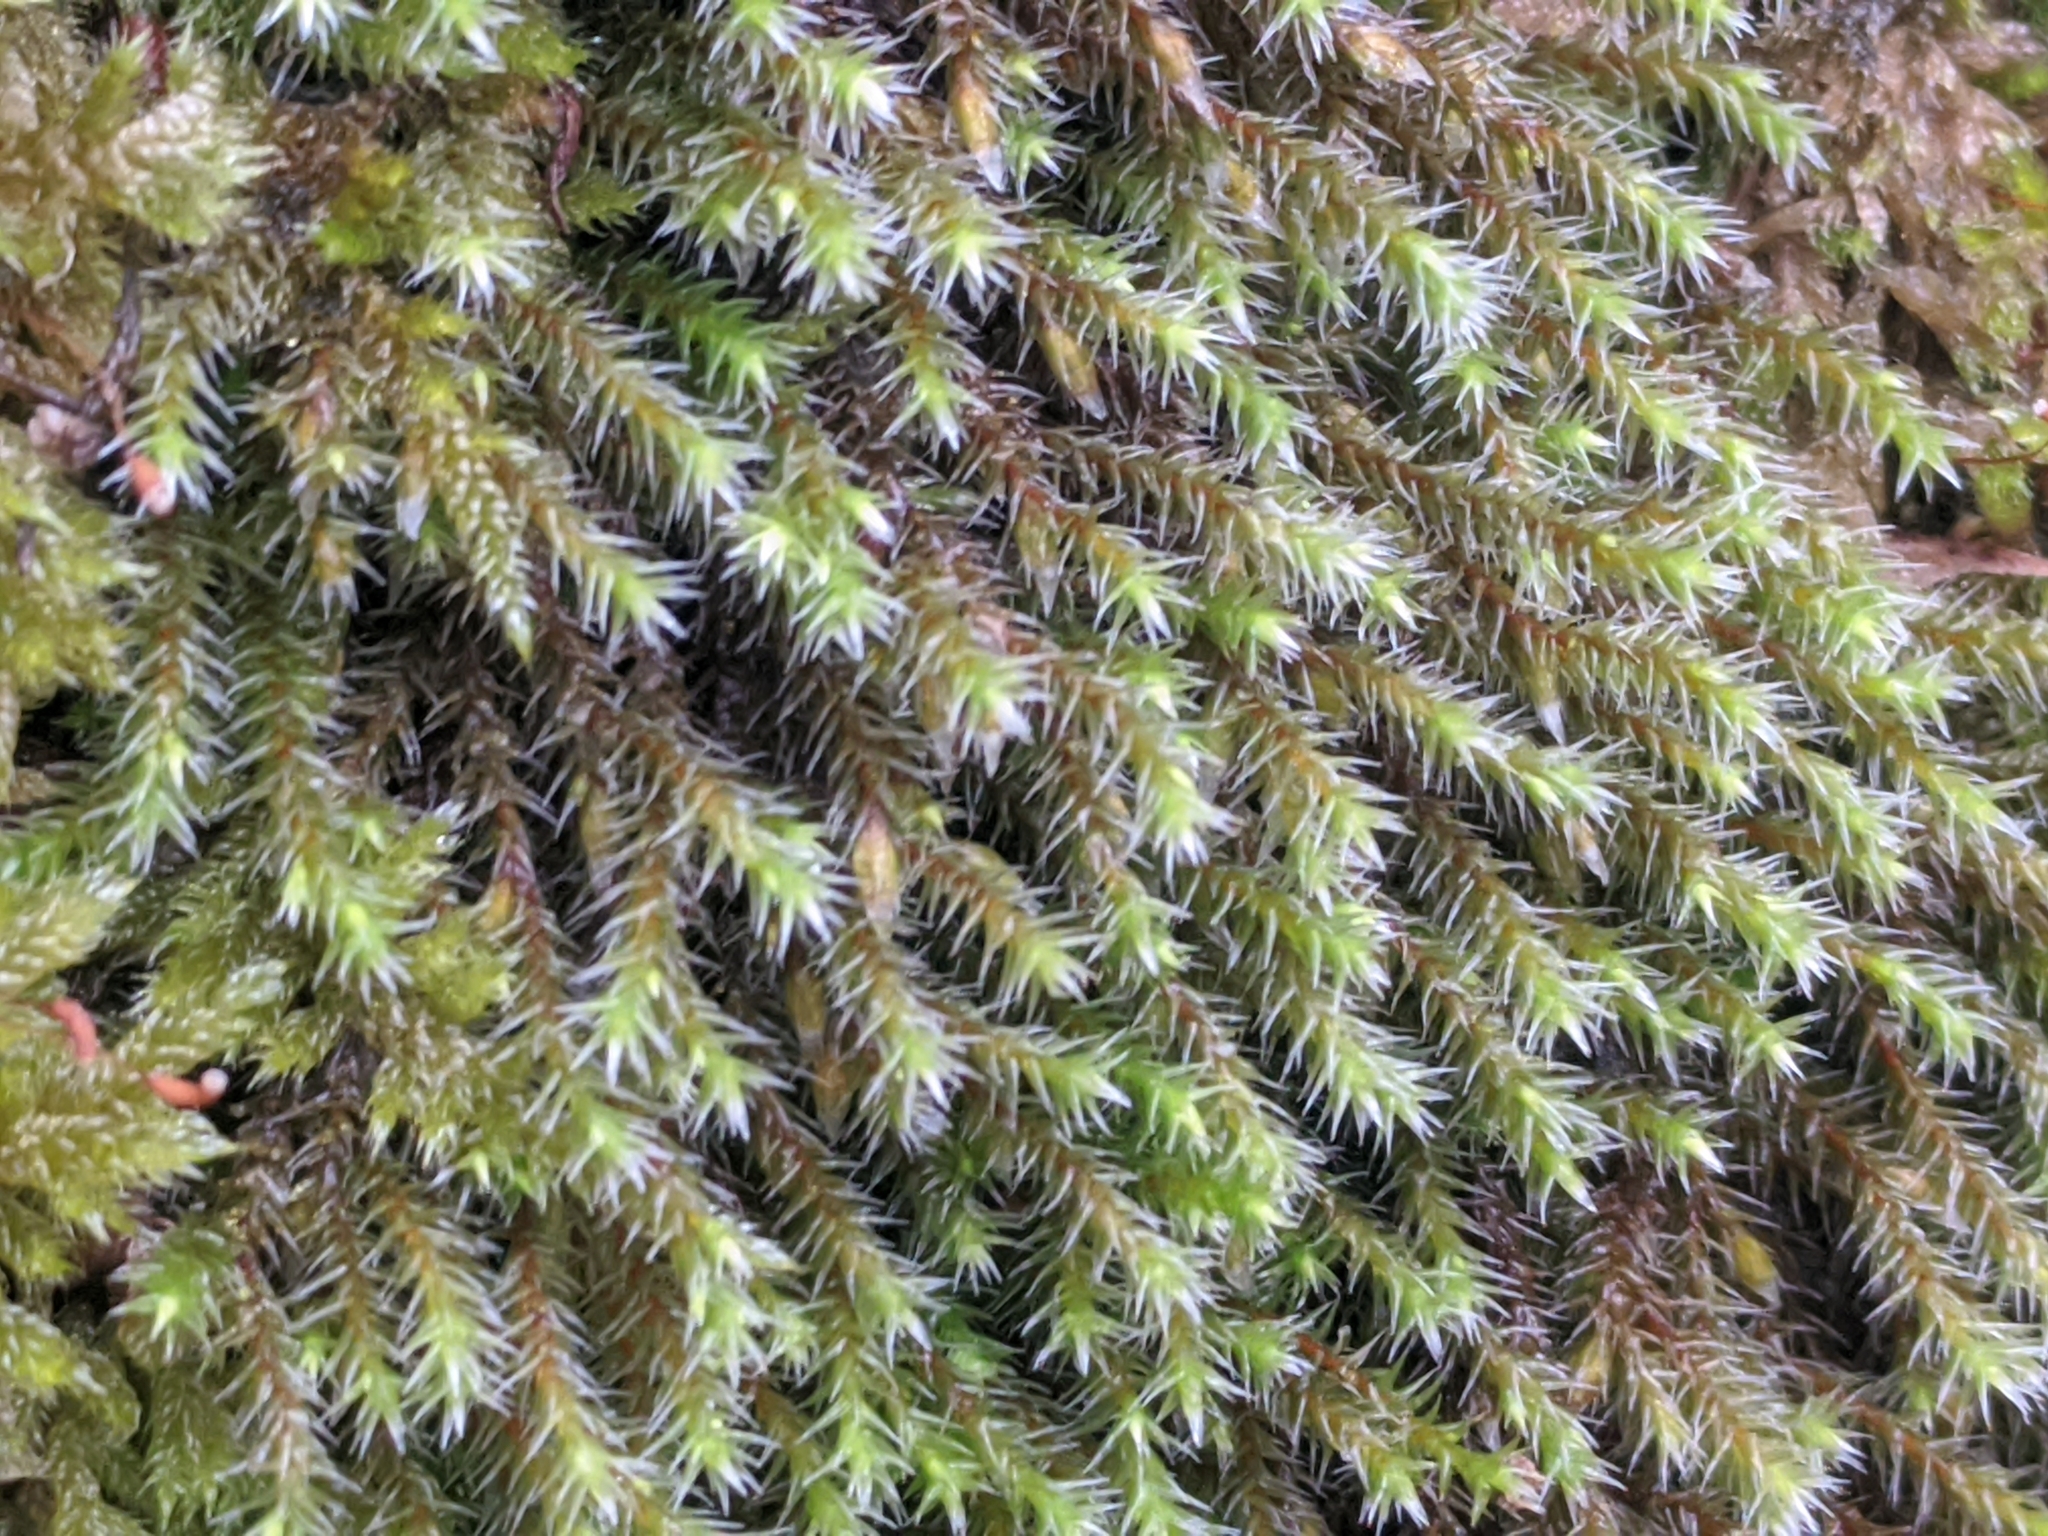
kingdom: Plantae
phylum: Bryophyta
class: Bryopsida
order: Hedwigiales
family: Hedwigiaceae
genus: Hedwigia
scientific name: Hedwigia ciliata
